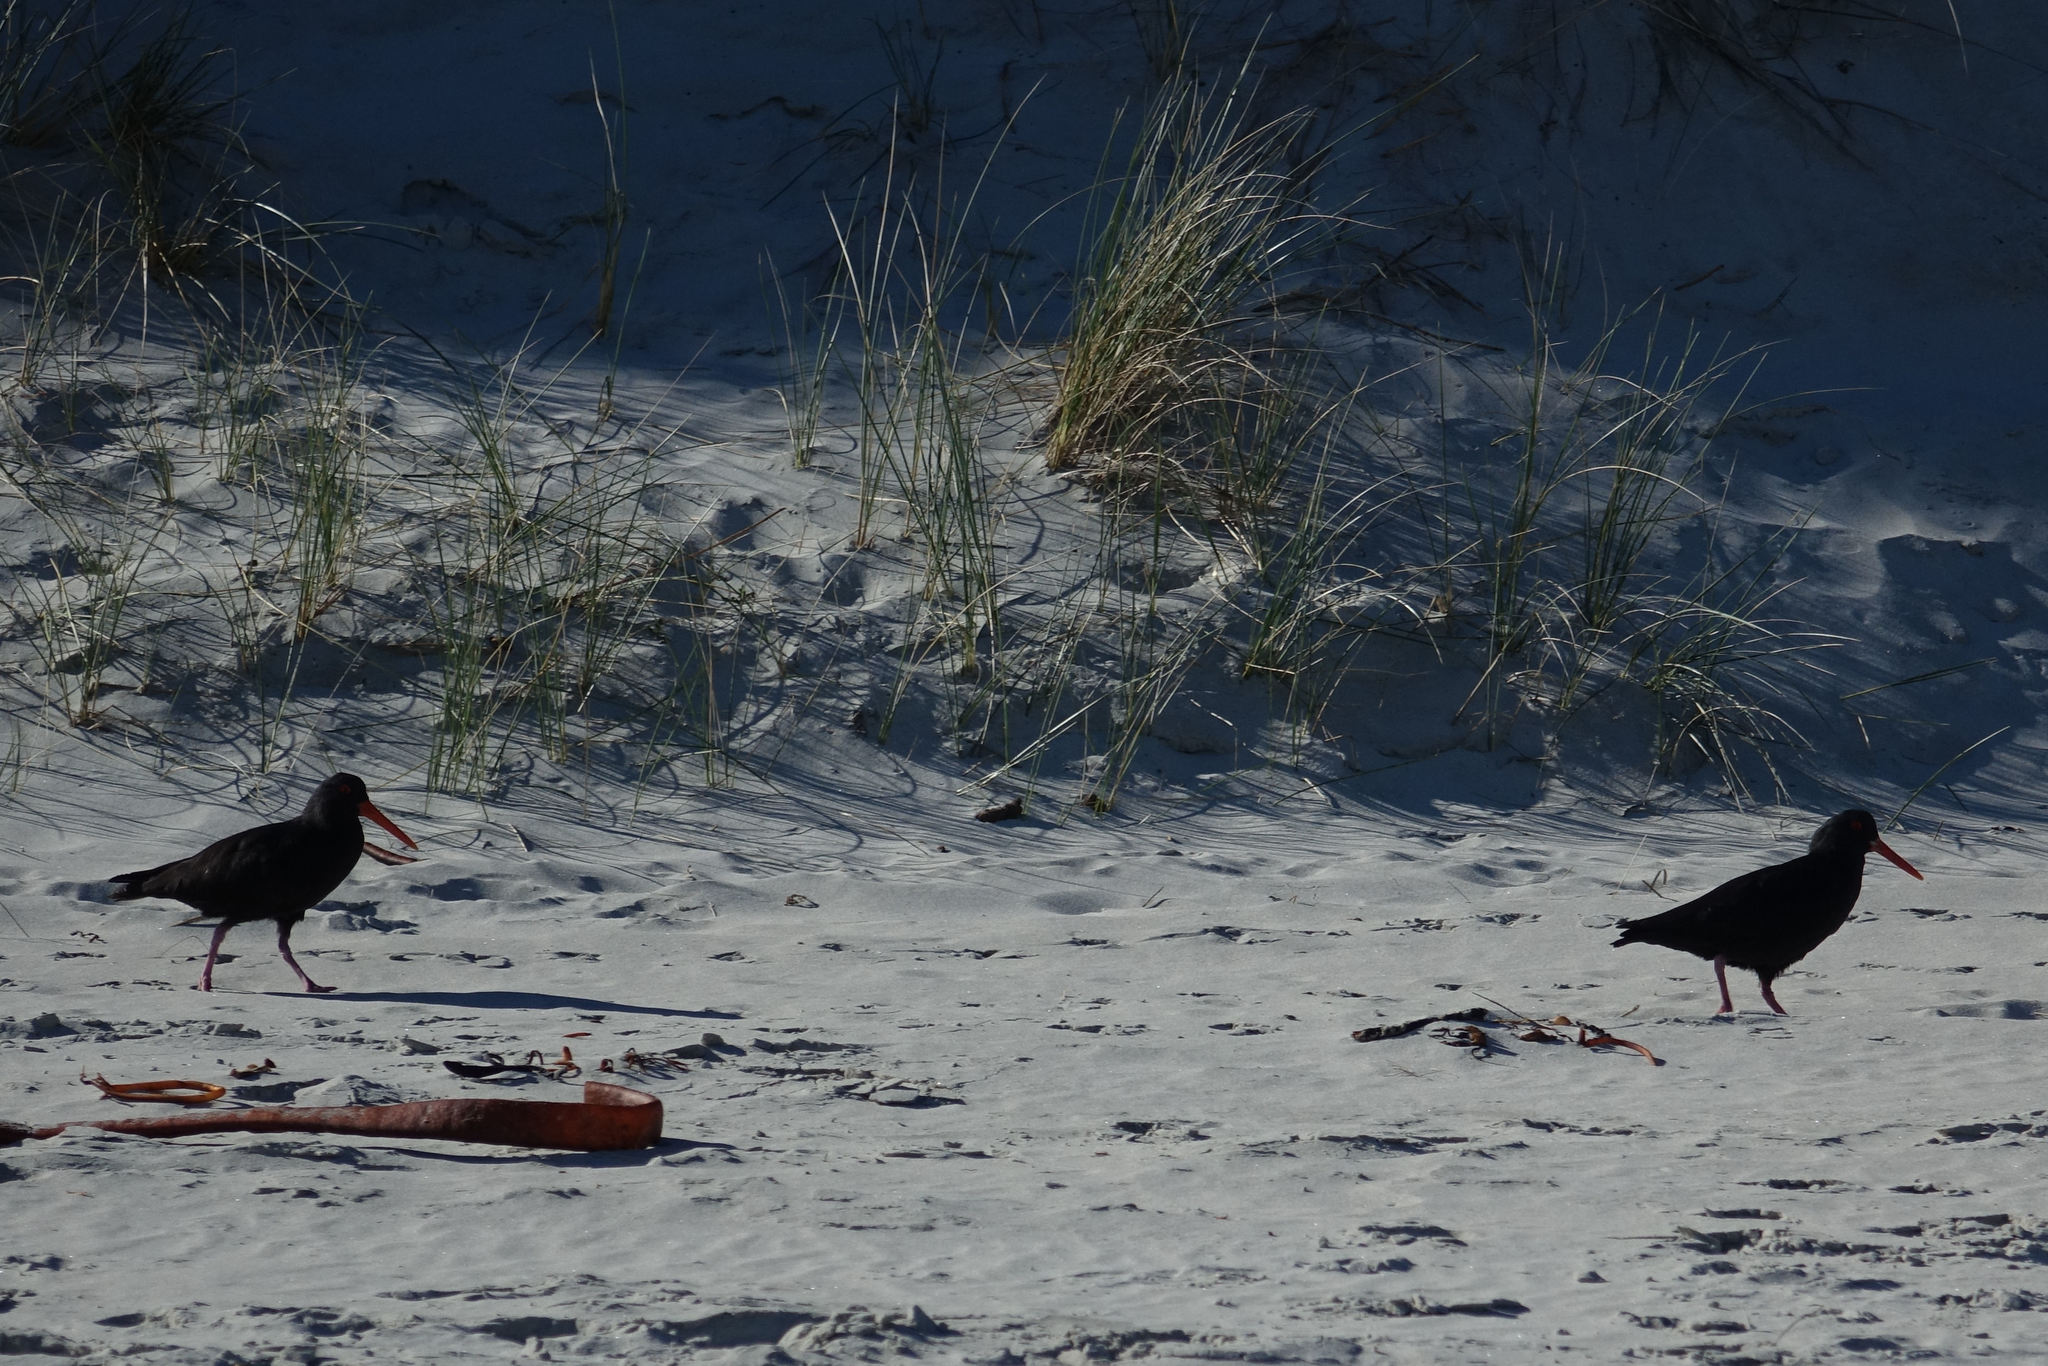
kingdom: Animalia
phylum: Chordata
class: Aves
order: Charadriiformes
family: Haematopodidae
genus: Haematopus
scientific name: Haematopus unicolor
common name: Variable oystercatcher
